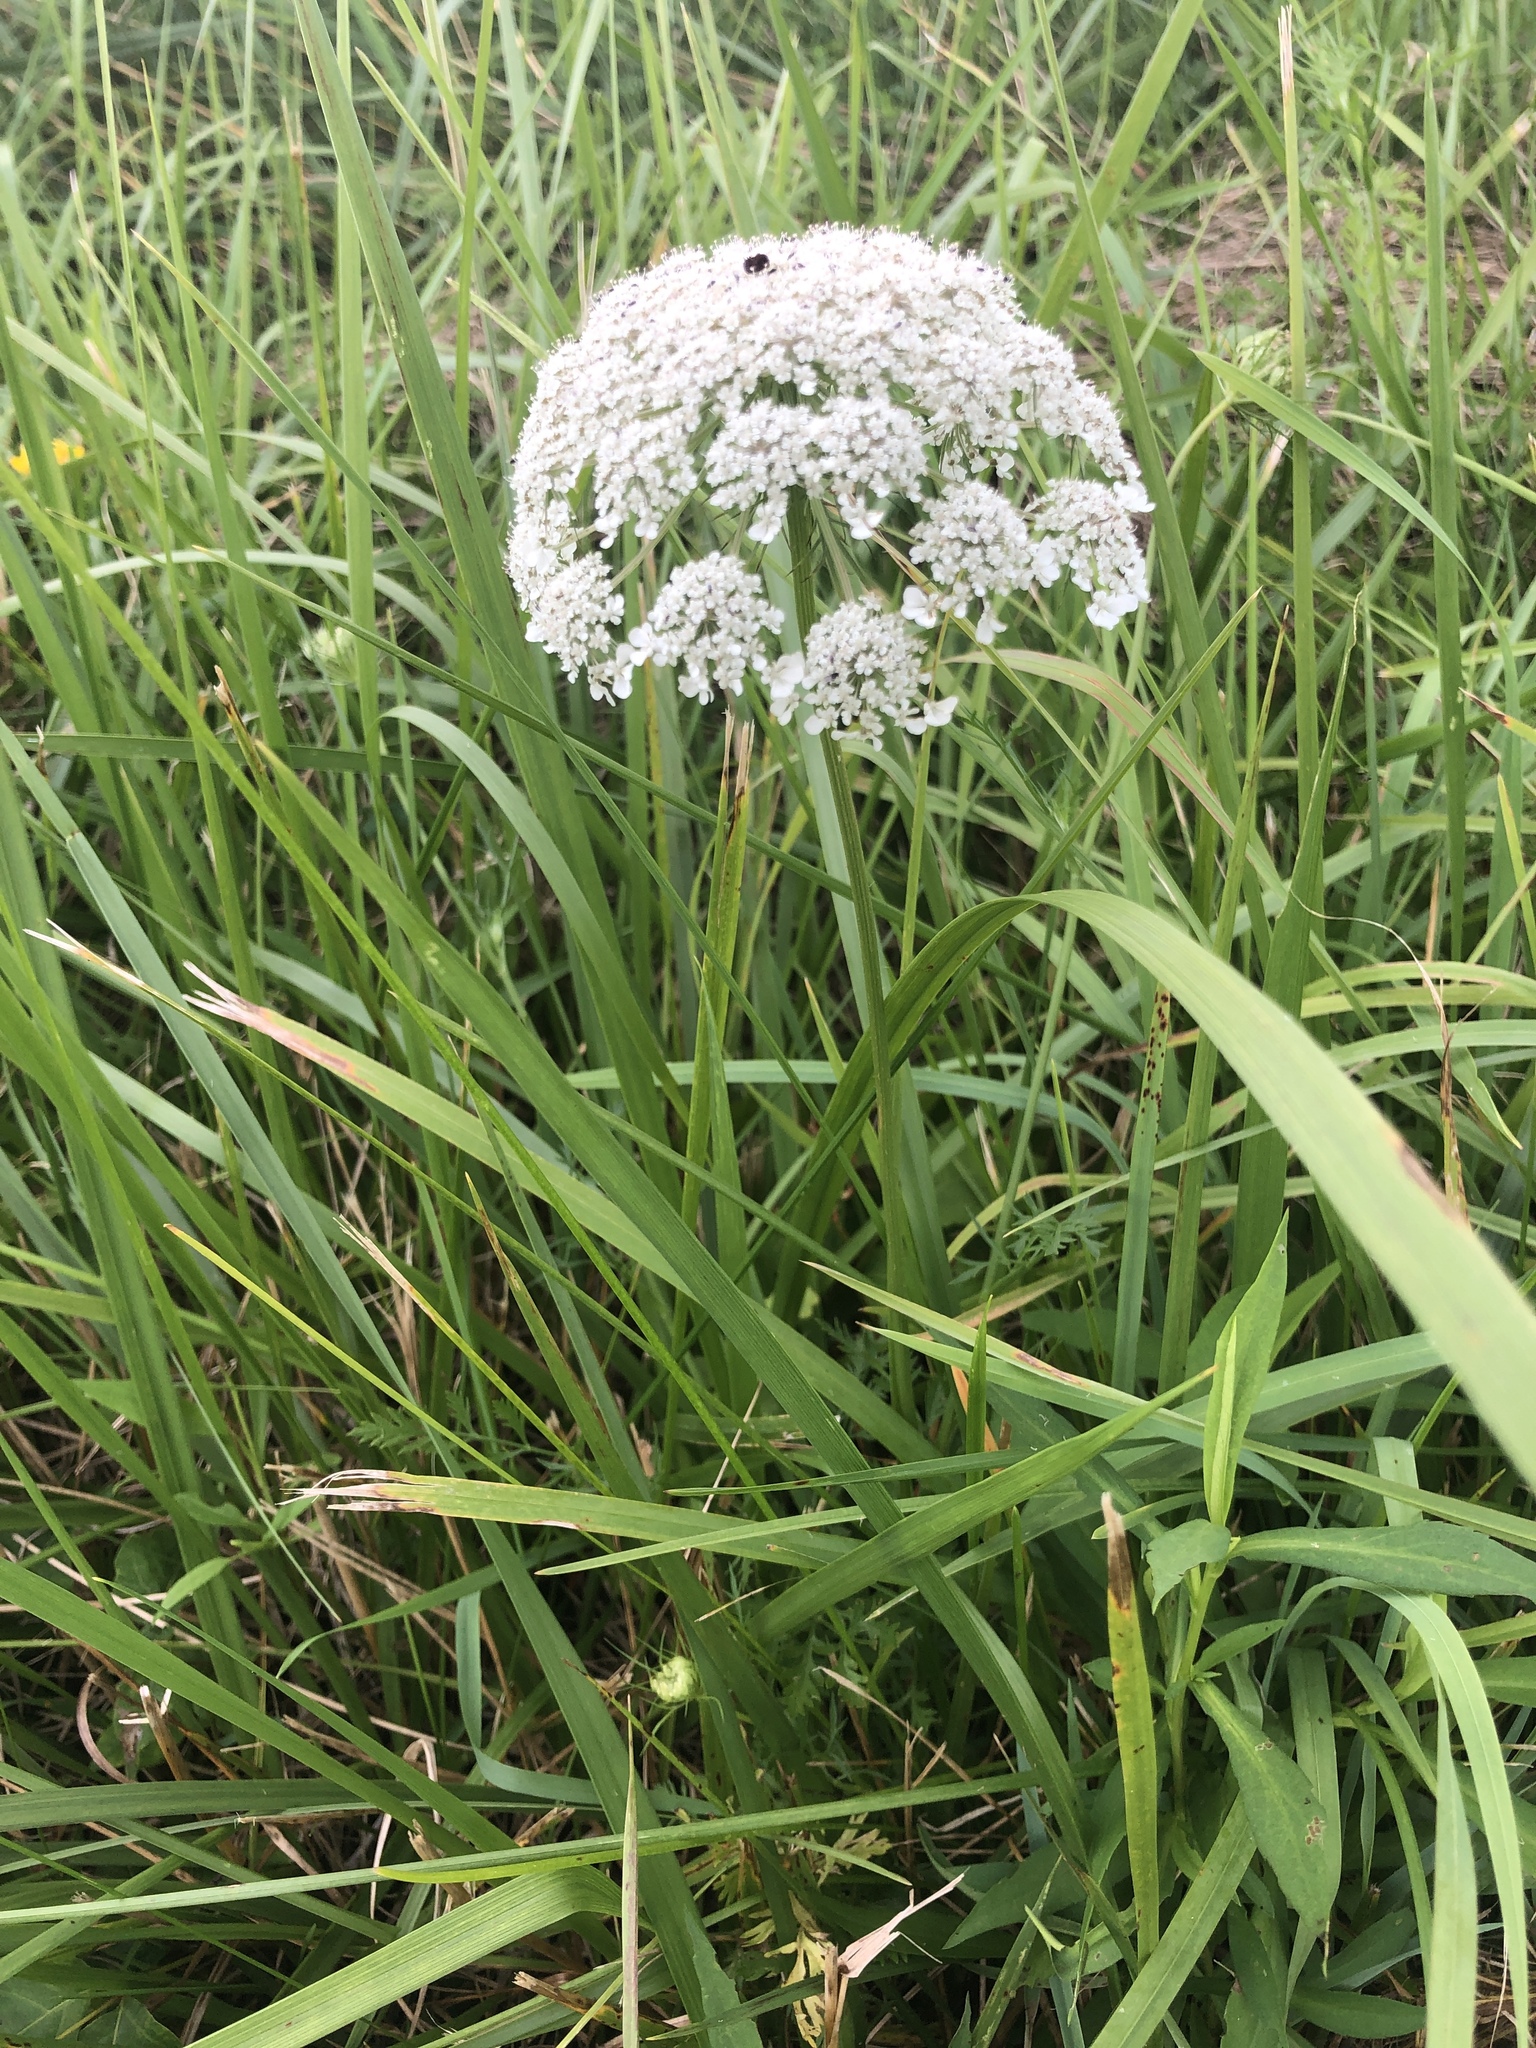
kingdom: Plantae
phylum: Tracheophyta
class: Magnoliopsida
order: Apiales
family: Apiaceae
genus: Daucus
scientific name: Daucus carota
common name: Wild carrot
